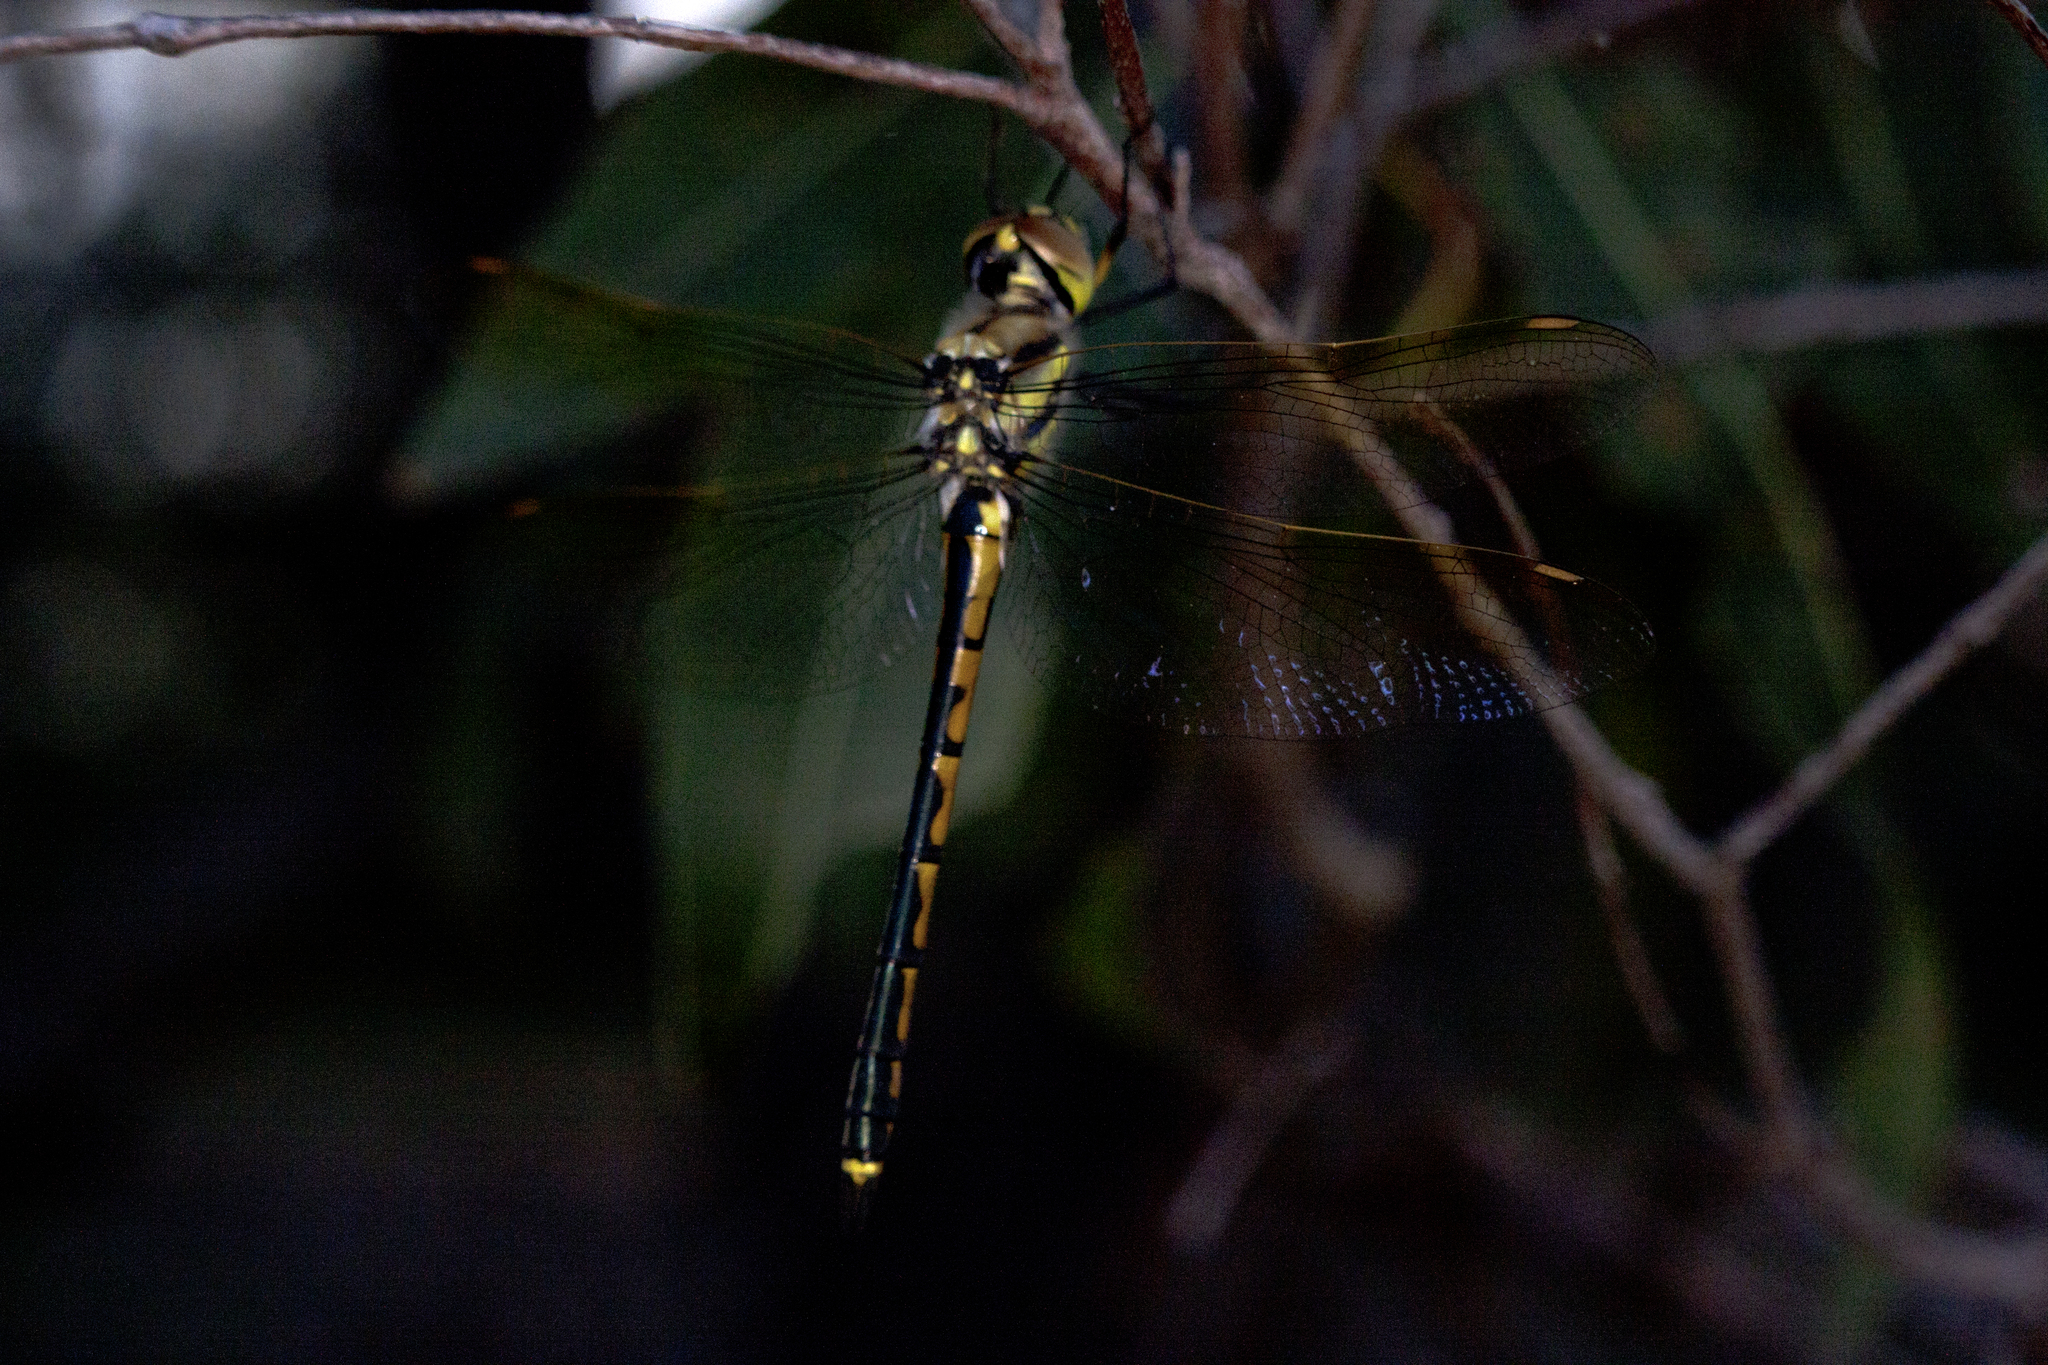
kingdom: Animalia
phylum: Arthropoda
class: Insecta
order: Odonata
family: Corduliidae
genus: Hemicordulia
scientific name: Hemicordulia tau
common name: Tau emerald
